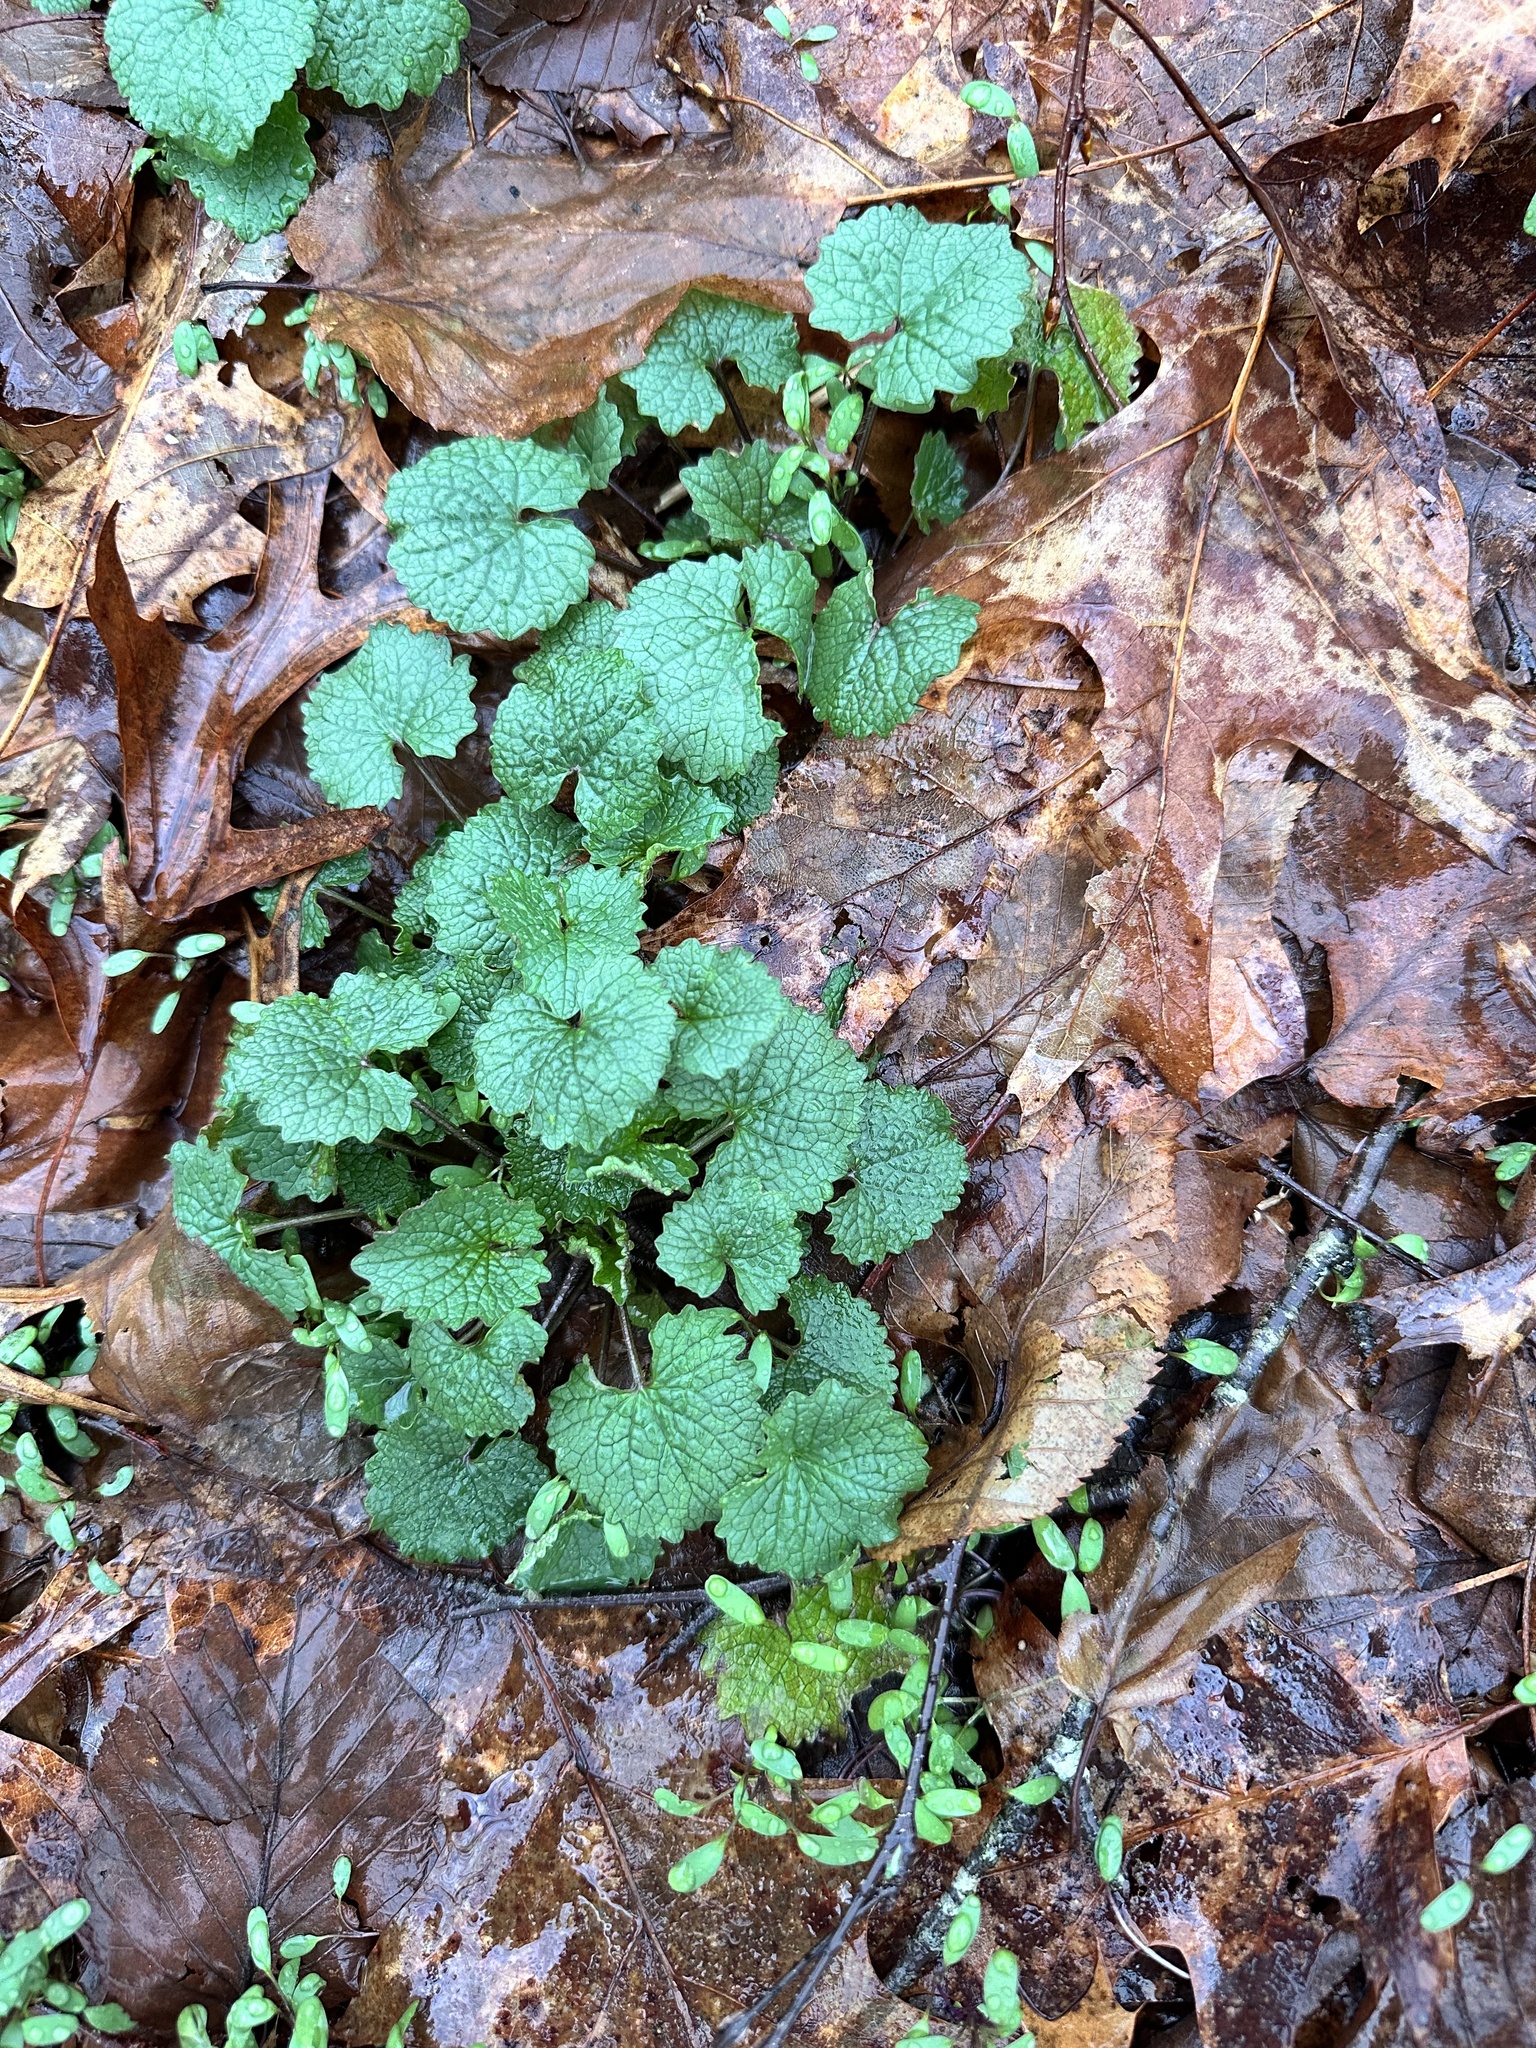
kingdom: Plantae
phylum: Tracheophyta
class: Magnoliopsida
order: Brassicales
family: Brassicaceae
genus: Alliaria
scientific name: Alliaria petiolata
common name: Garlic mustard
